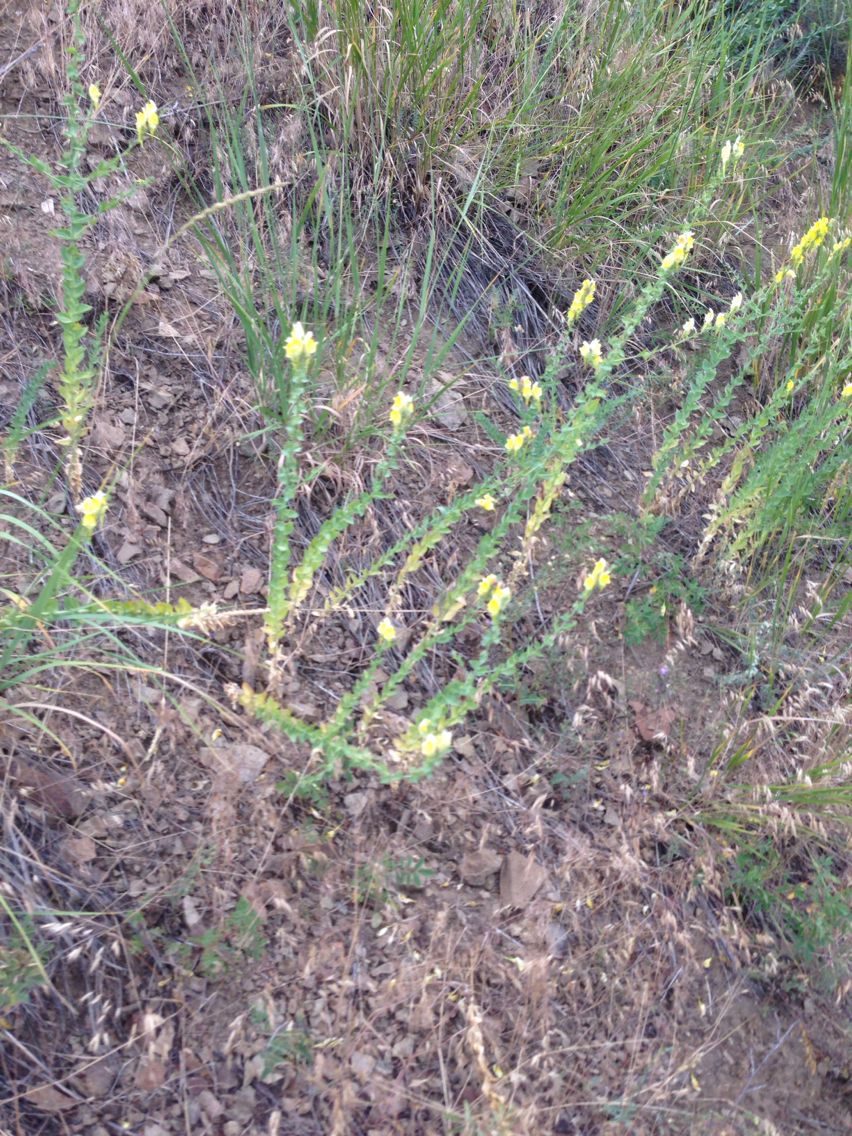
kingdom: Plantae
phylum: Tracheophyta
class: Magnoliopsida
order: Lamiales
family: Plantaginaceae
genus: Linaria
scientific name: Linaria dalmatica
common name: Dalmatian toadflax
